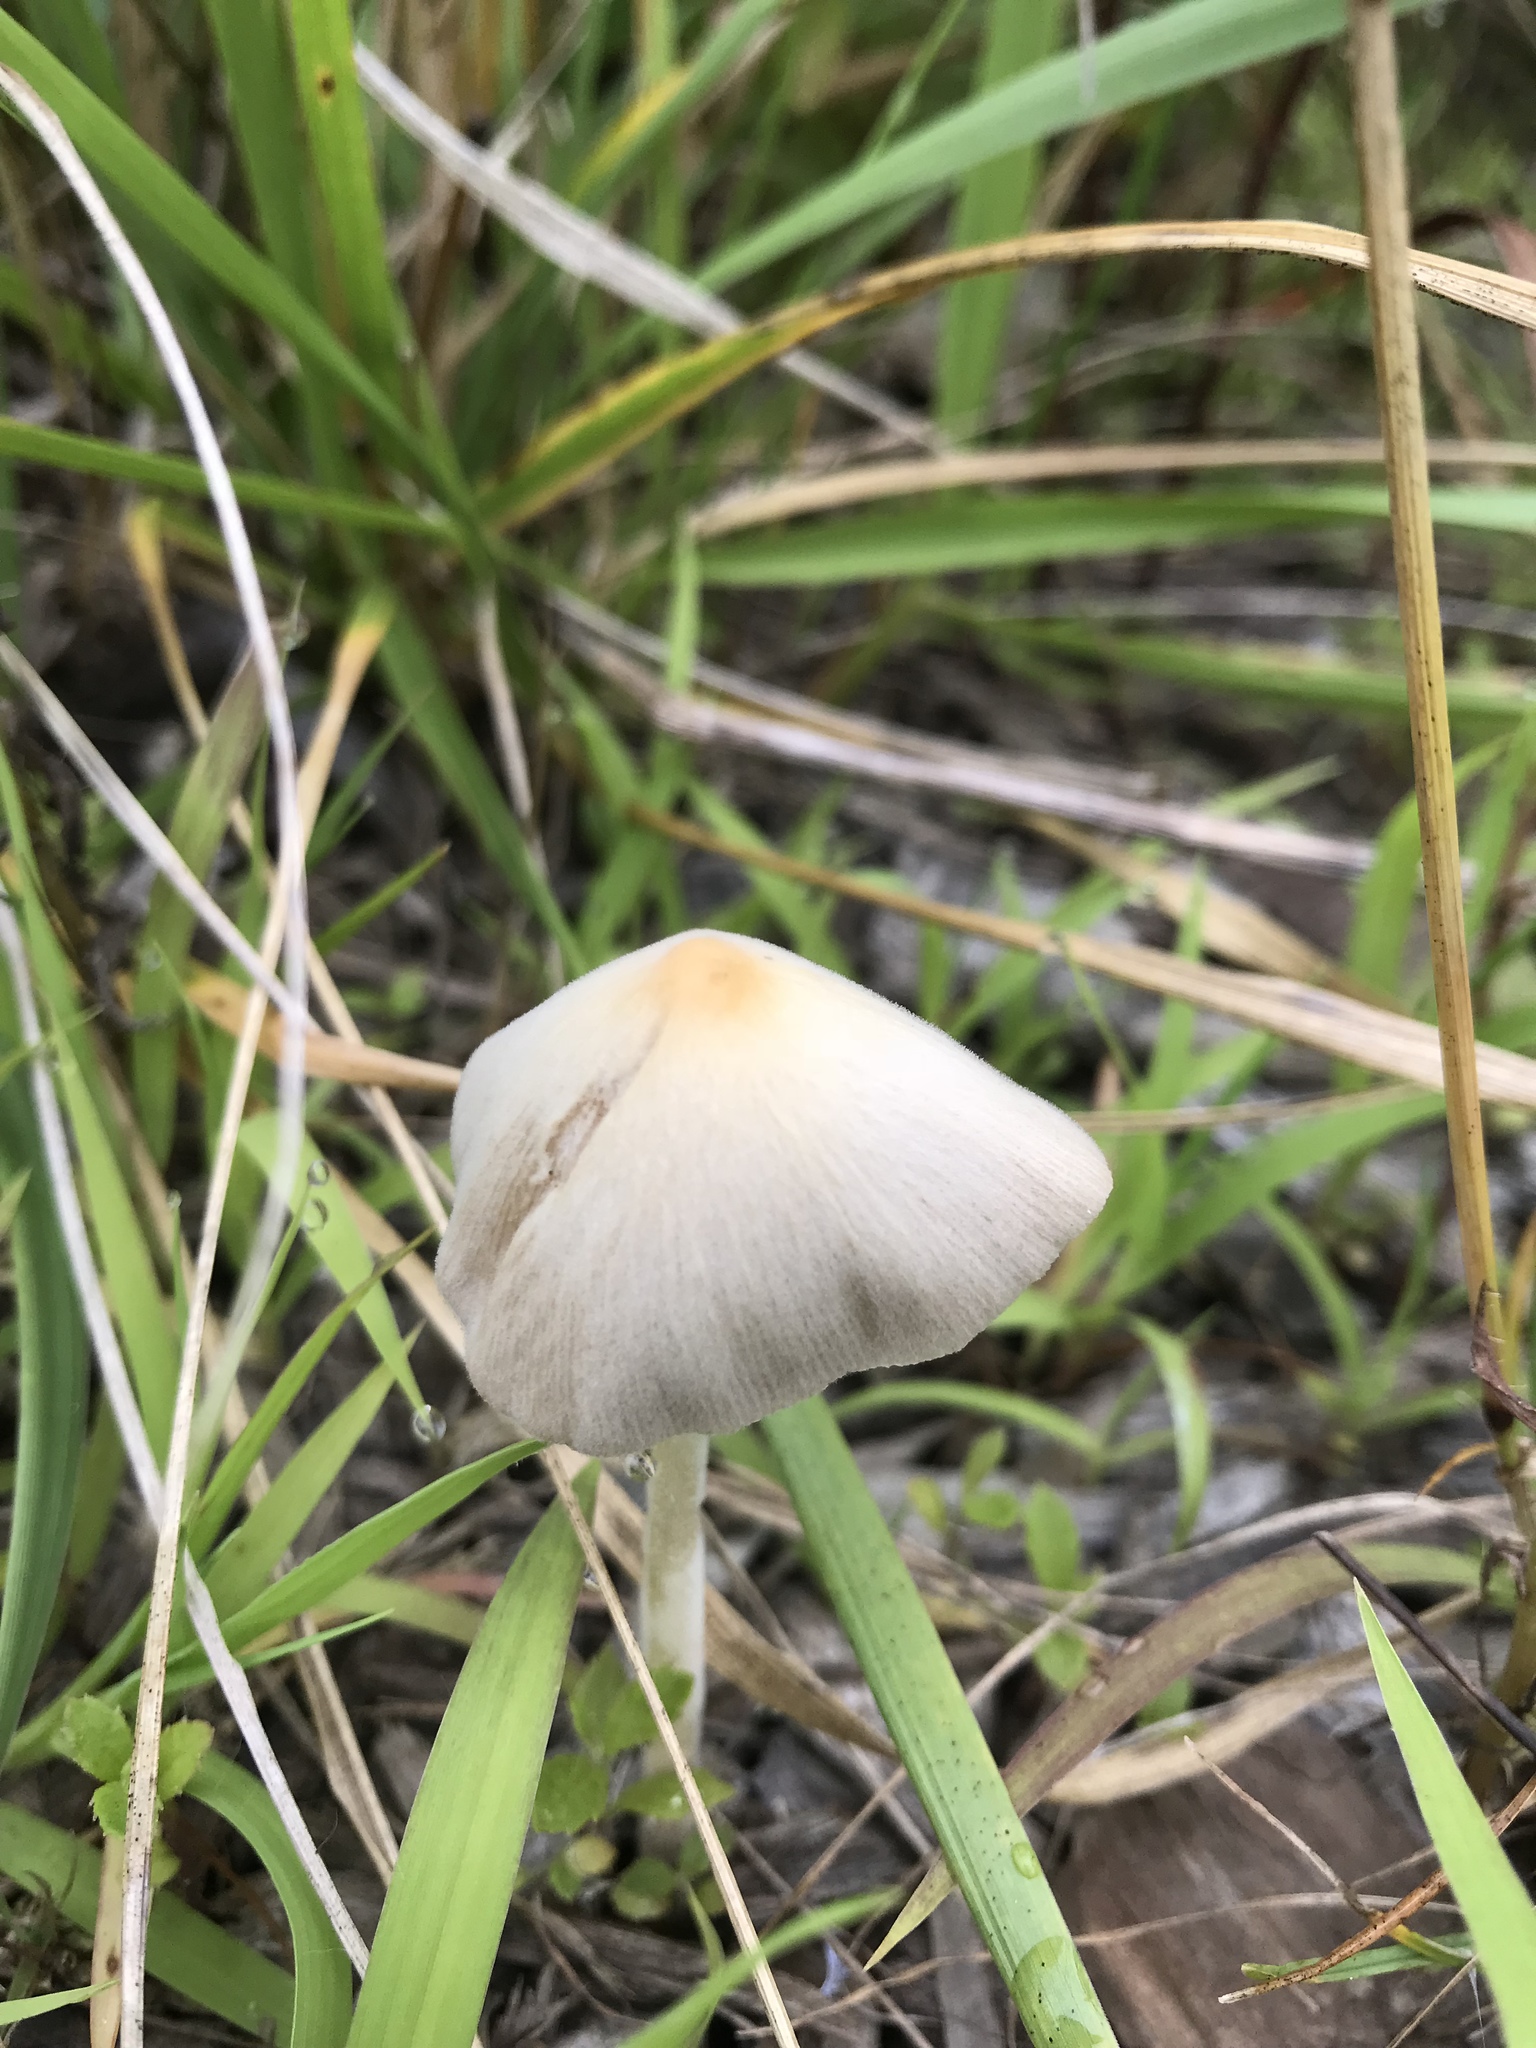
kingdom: Fungi
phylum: Basidiomycota
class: Agaricomycetes
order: Agaricales
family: Bolbitiaceae
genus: Conocybe
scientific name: Conocybe apala
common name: Milky conecap
